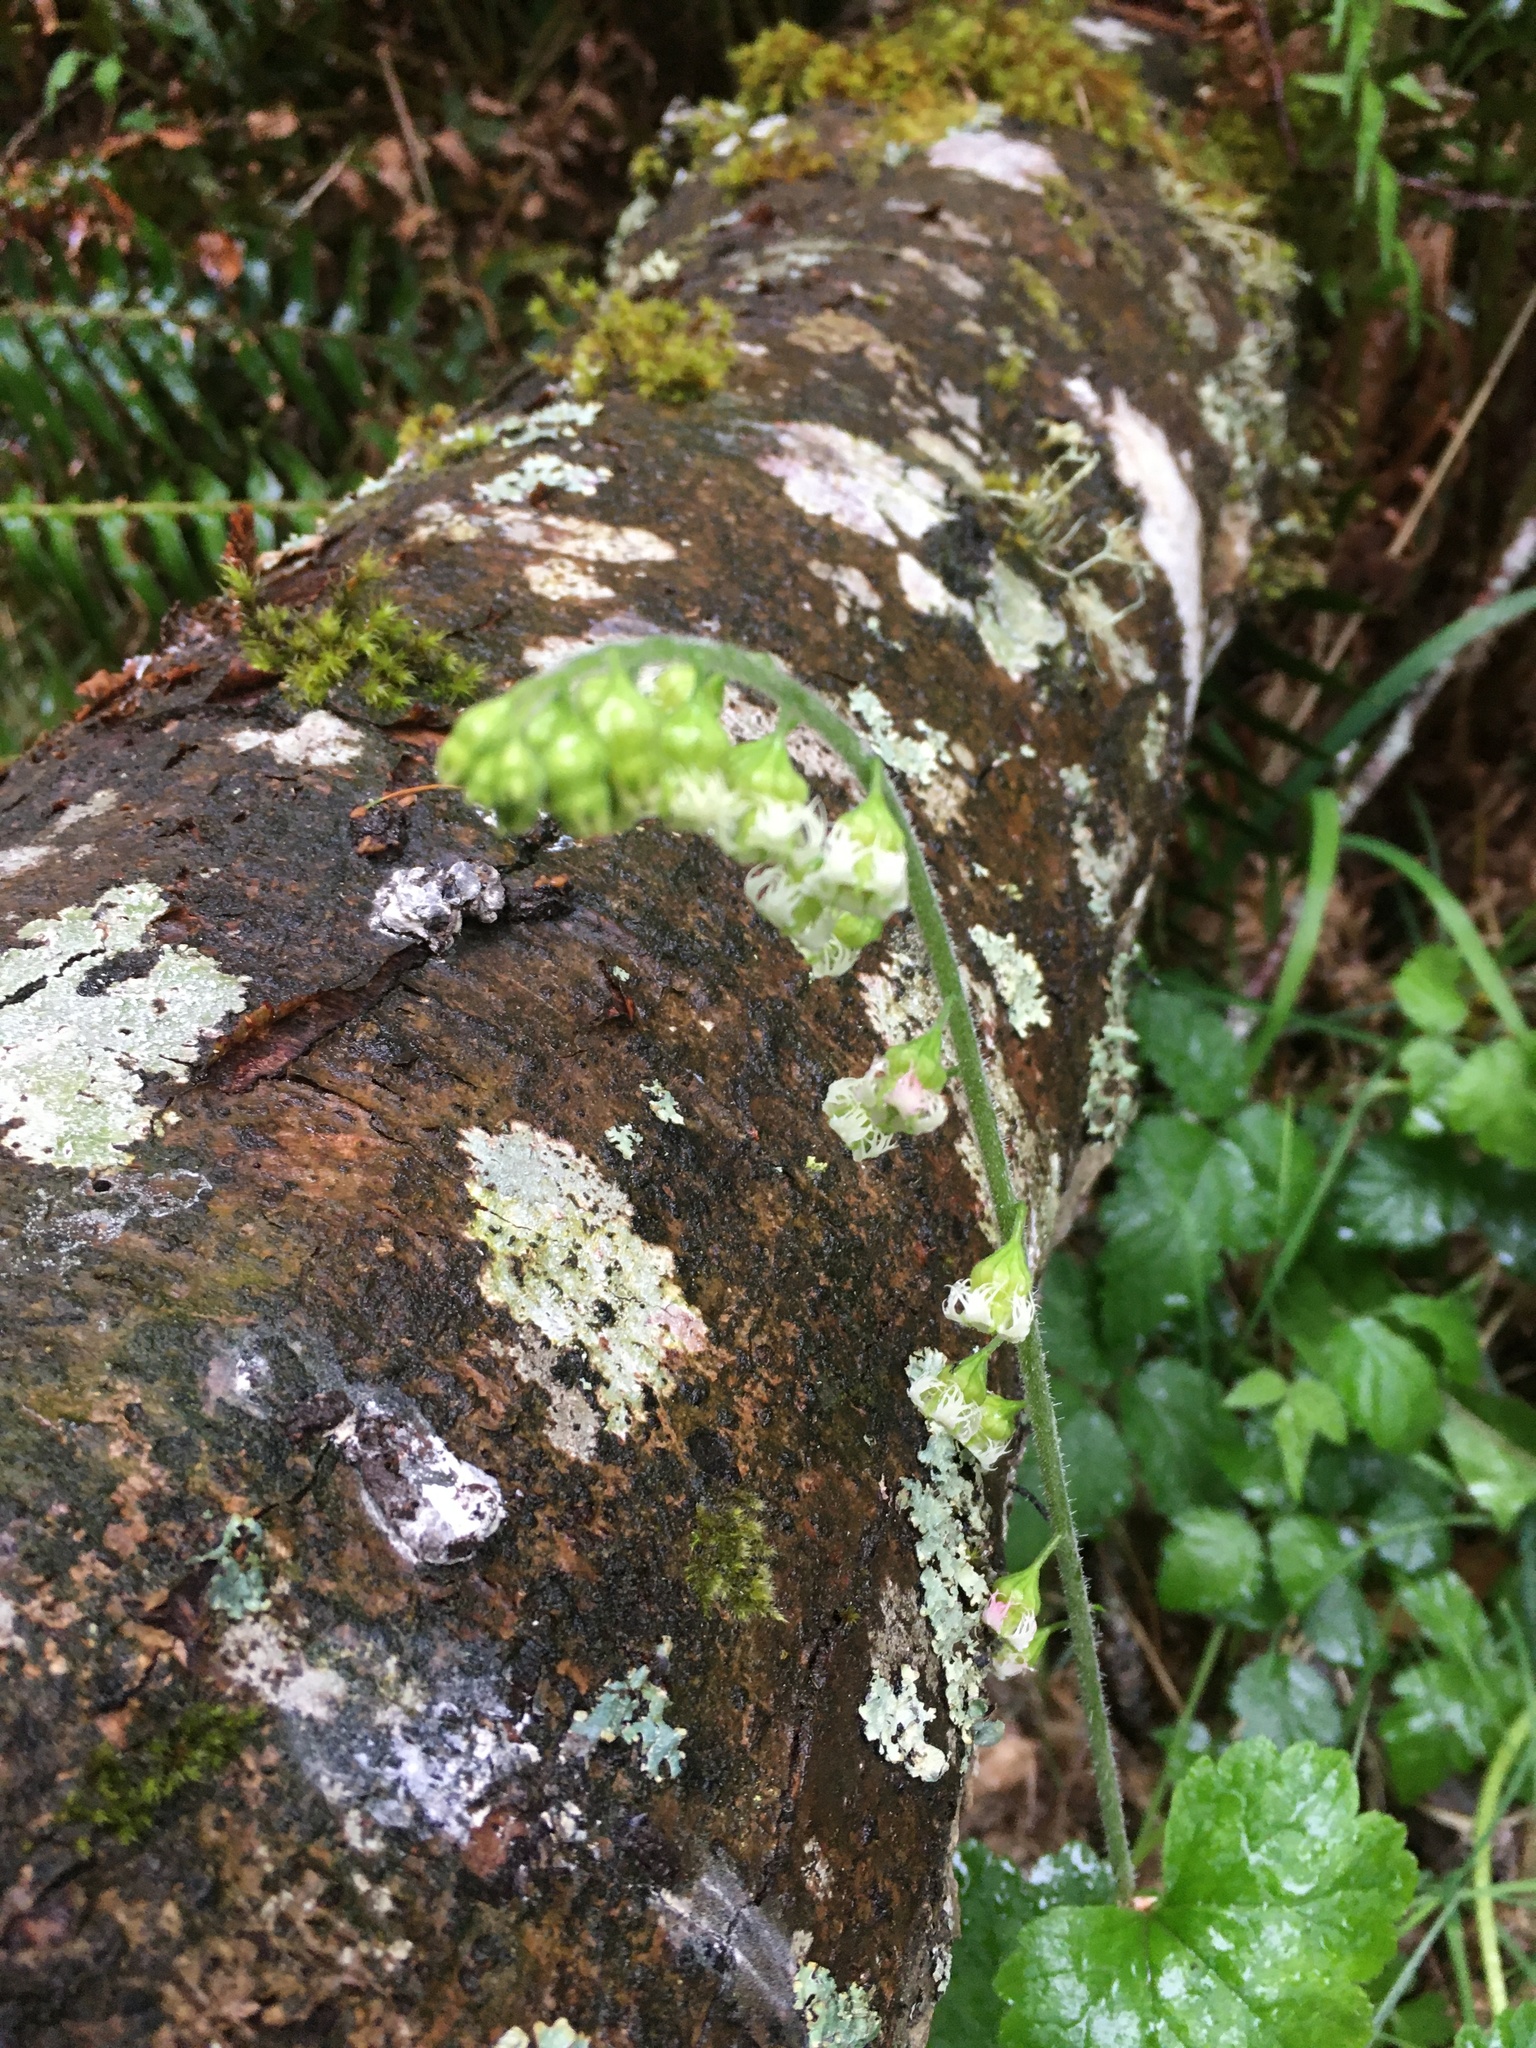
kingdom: Plantae
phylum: Tracheophyta
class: Magnoliopsida
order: Saxifragales
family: Saxifragaceae
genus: Tellima
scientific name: Tellima grandiflora
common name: Fringecups
